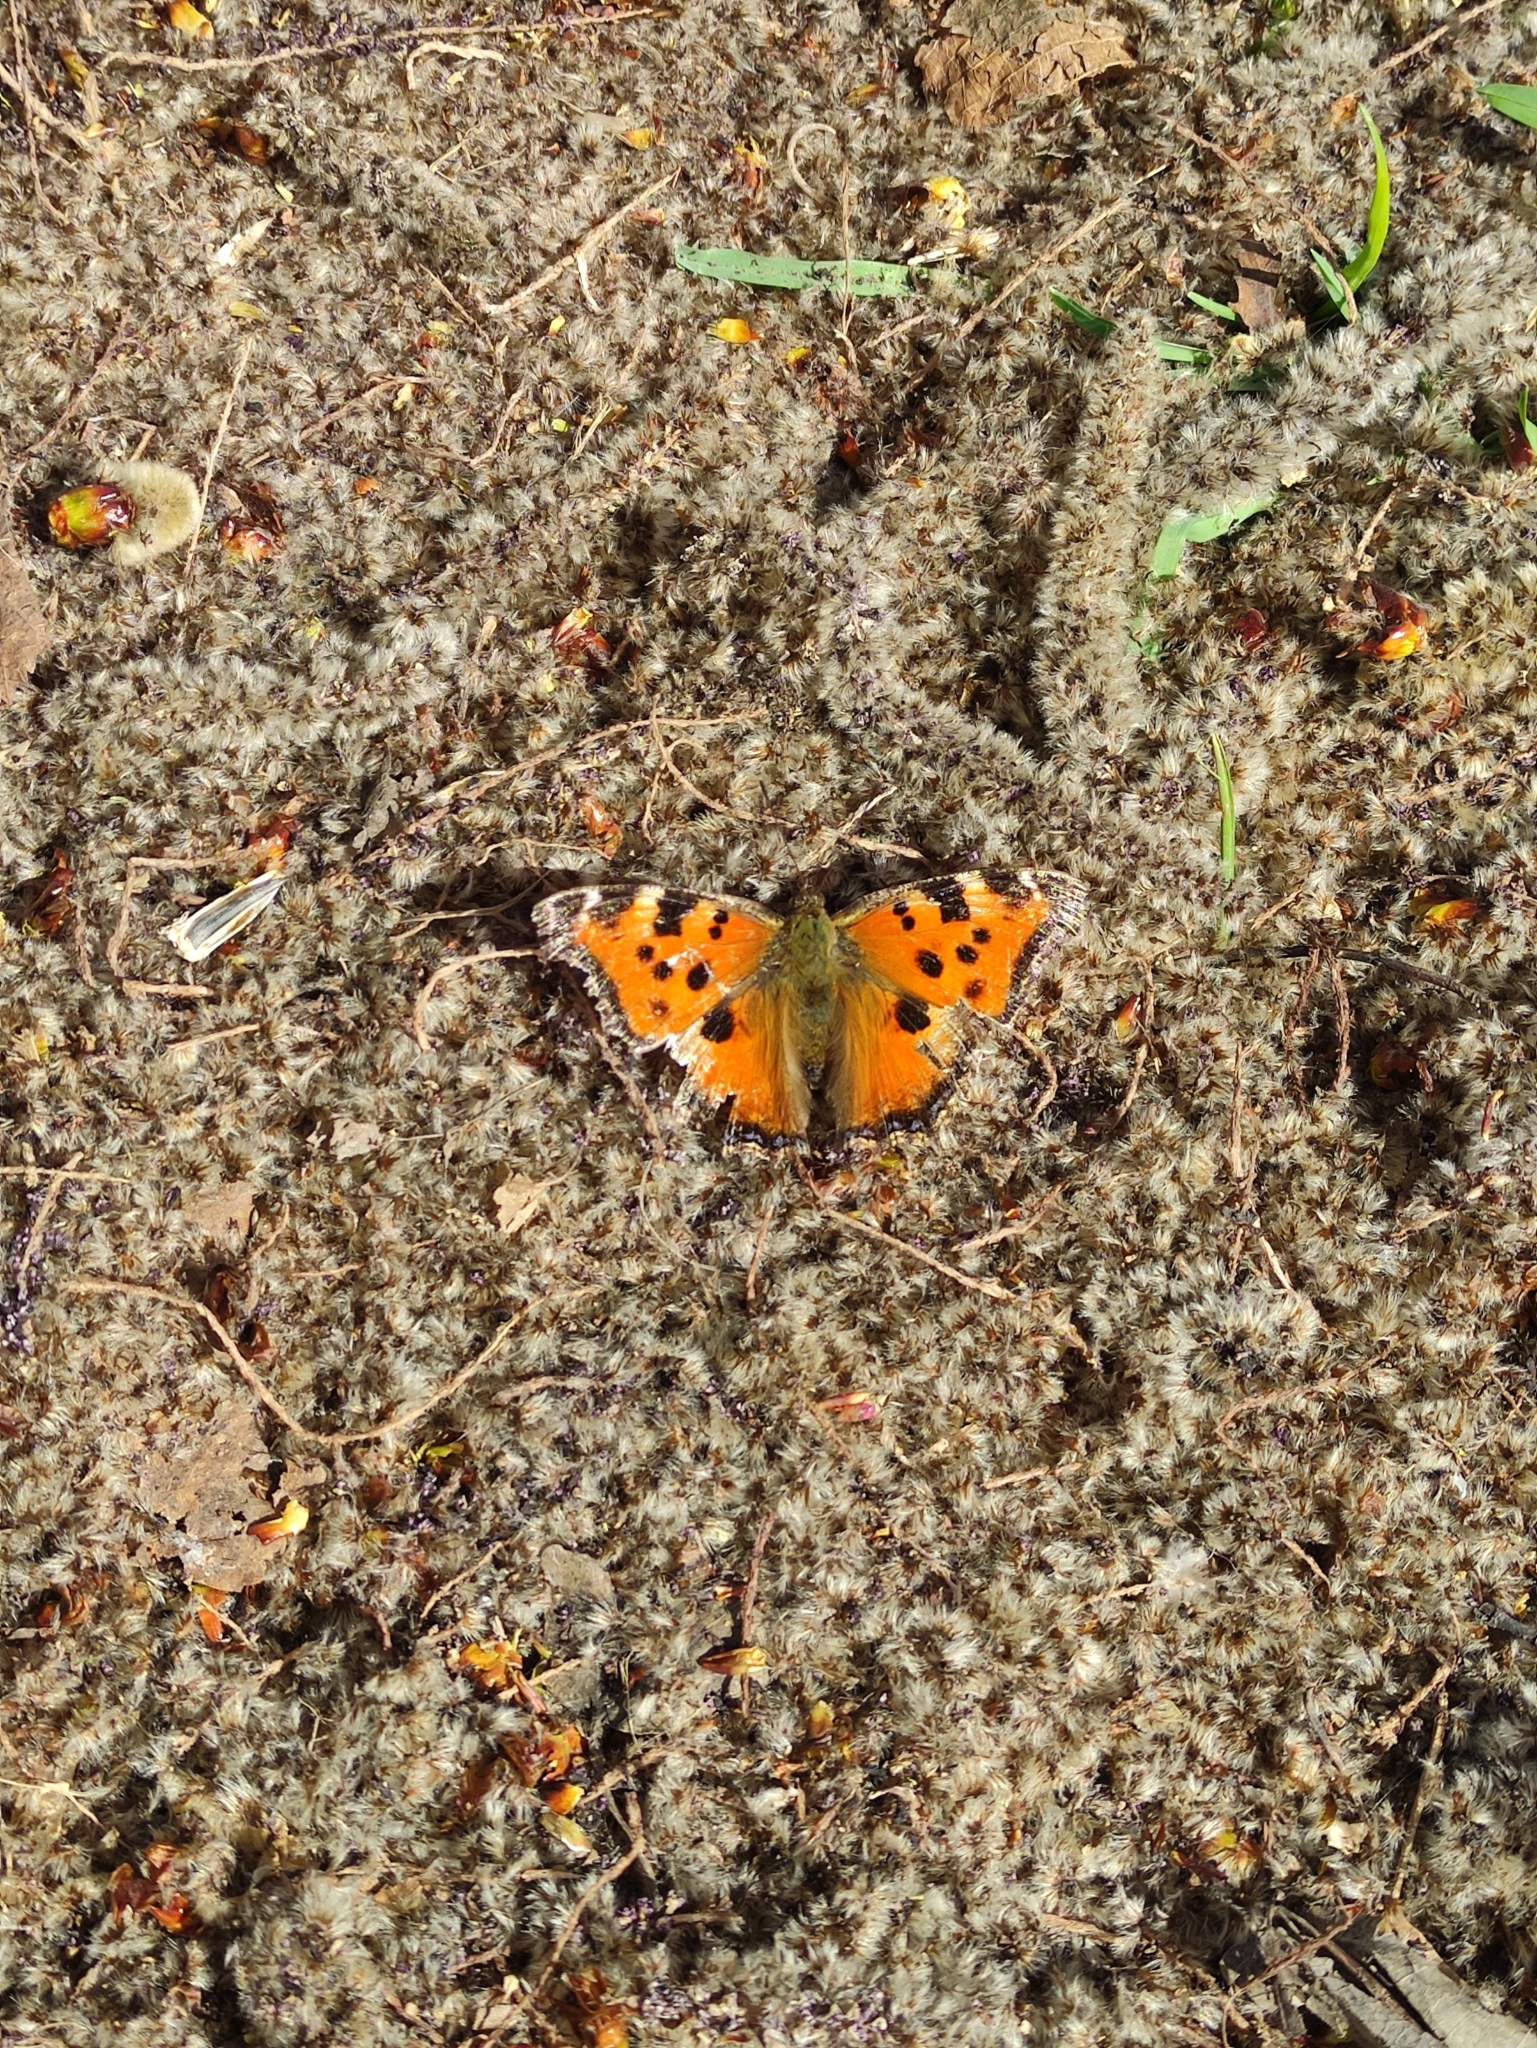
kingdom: Animalia
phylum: Arthropoda
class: Insecta
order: Lepidoptera
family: Nymphalidae
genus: Nymphalis
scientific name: Nymphalis xanthomelas
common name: Scarce tortoiseshell
